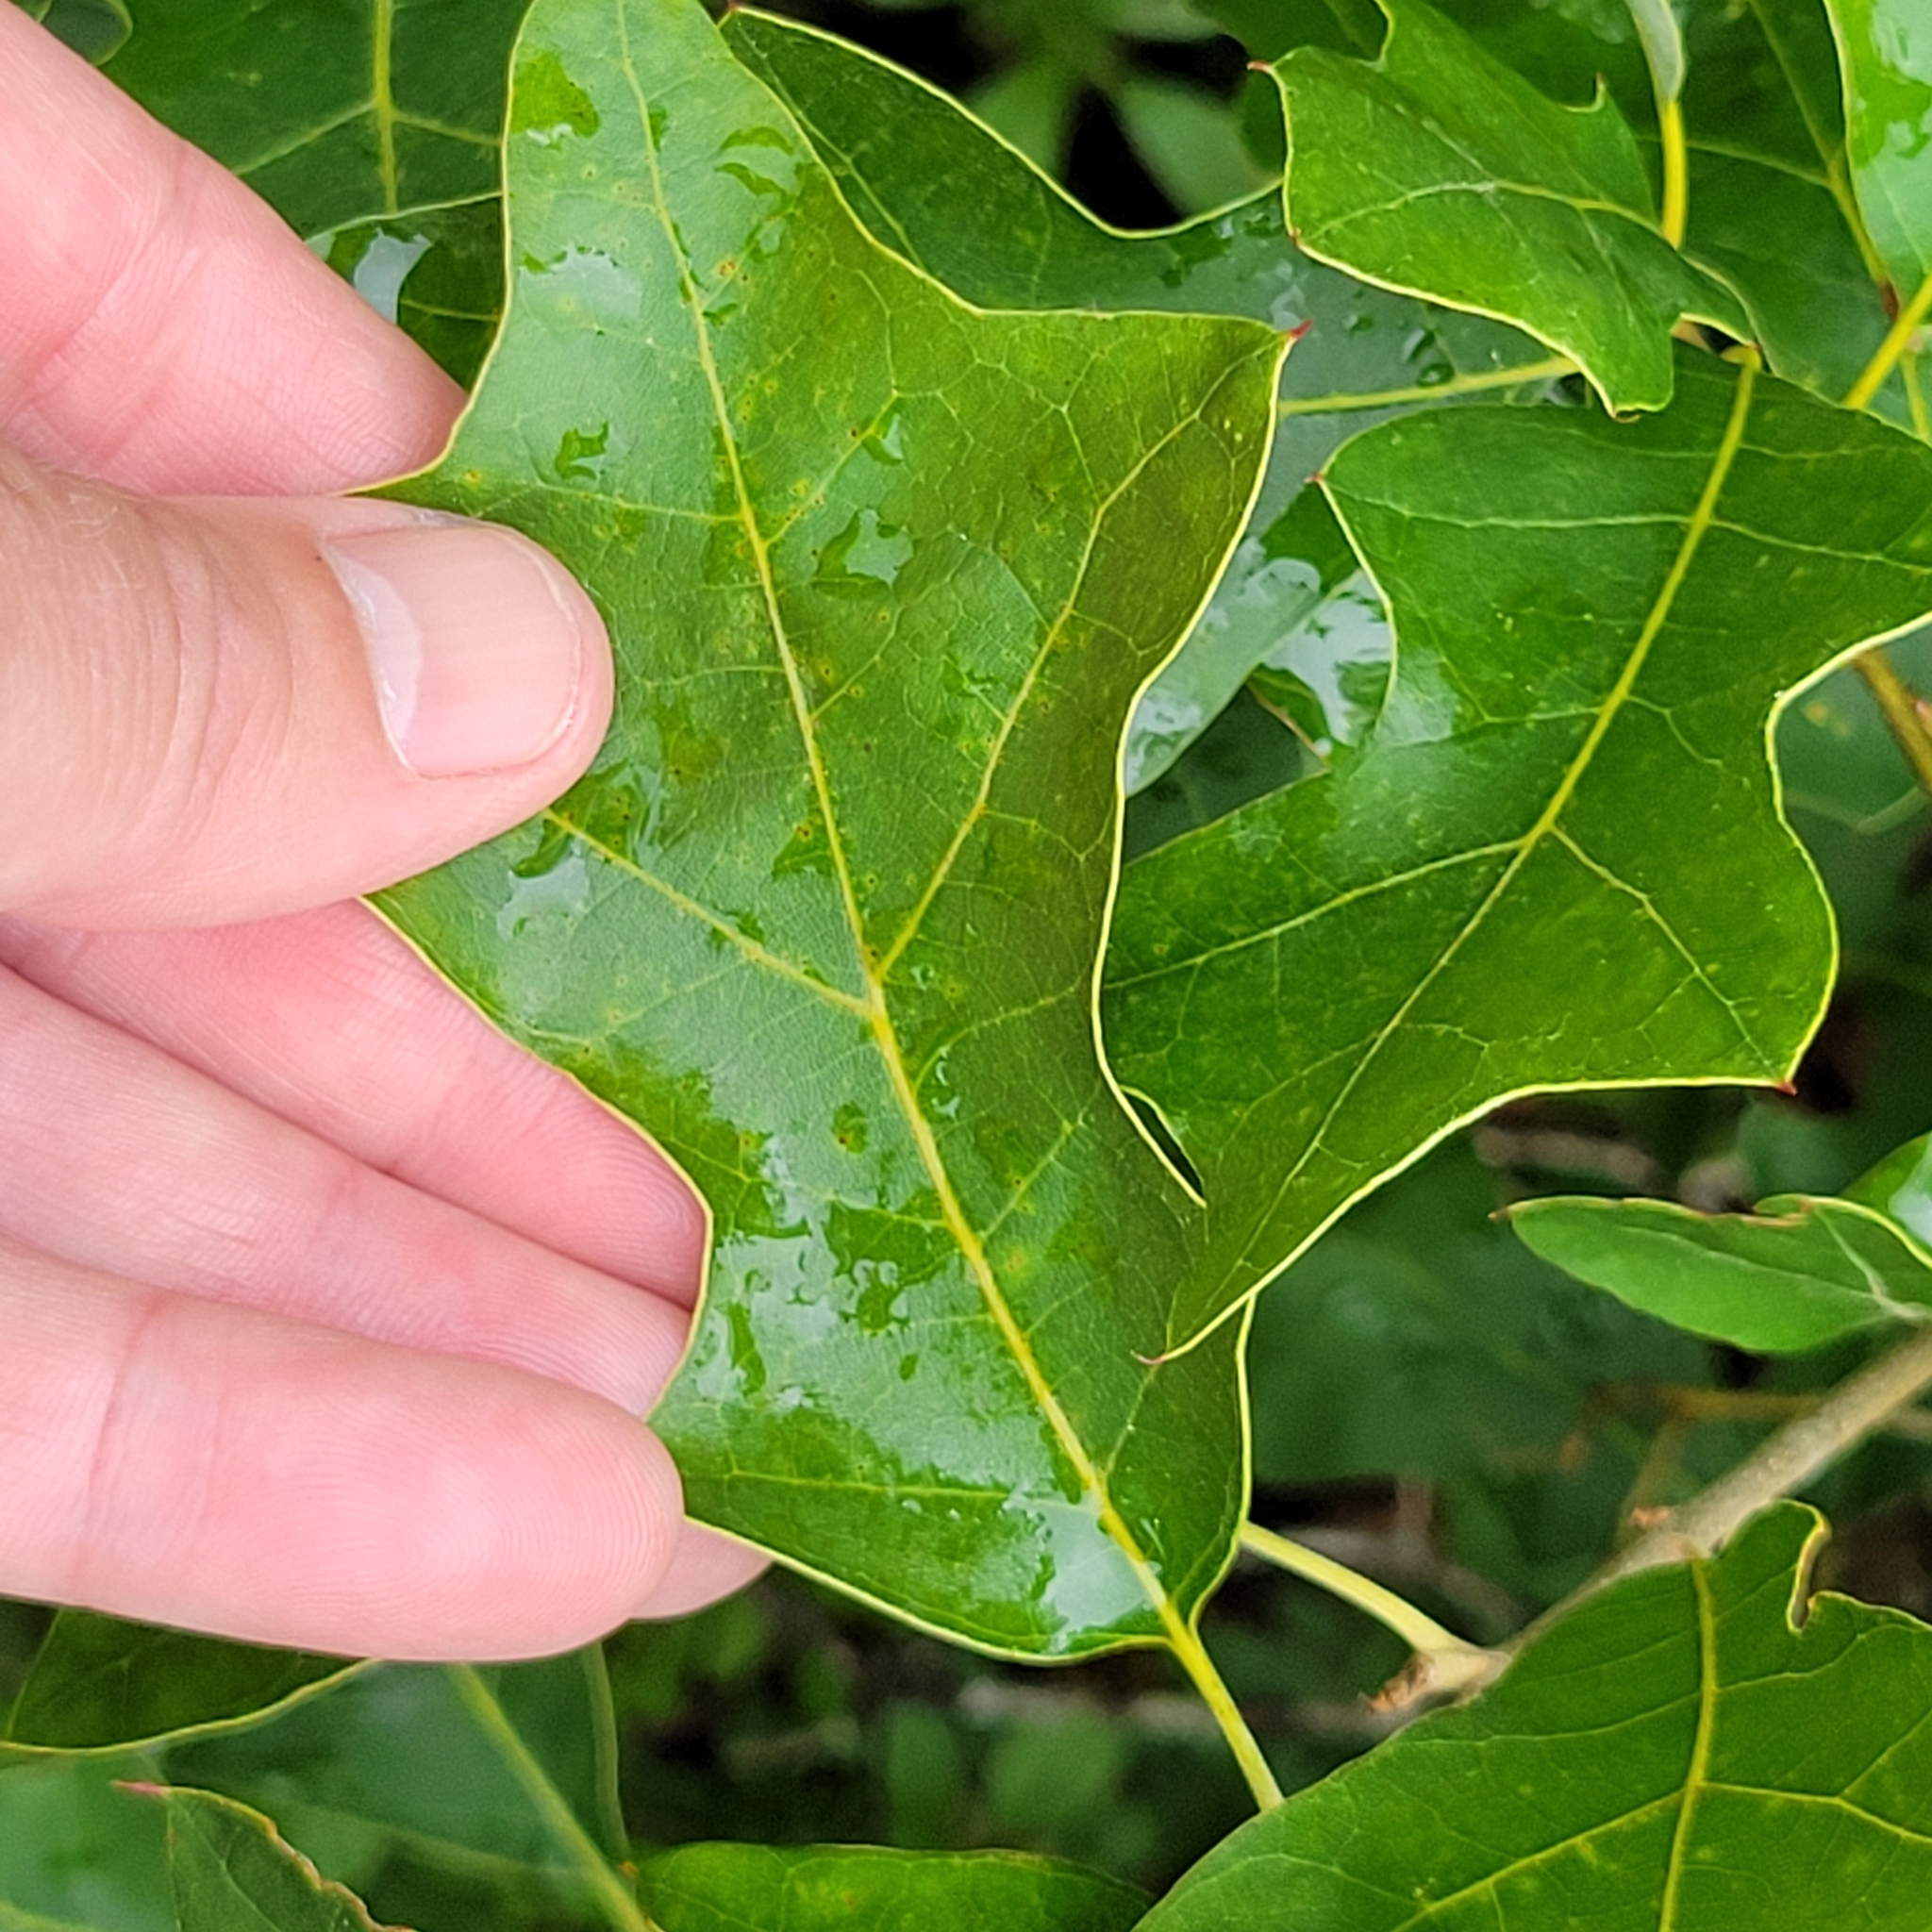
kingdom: Plantae
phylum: Tracheophyta
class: Magnoliopsida
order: Fagales
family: Fagaceae
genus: Quercus
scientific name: Quercus ilicifolia
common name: Bear oak
